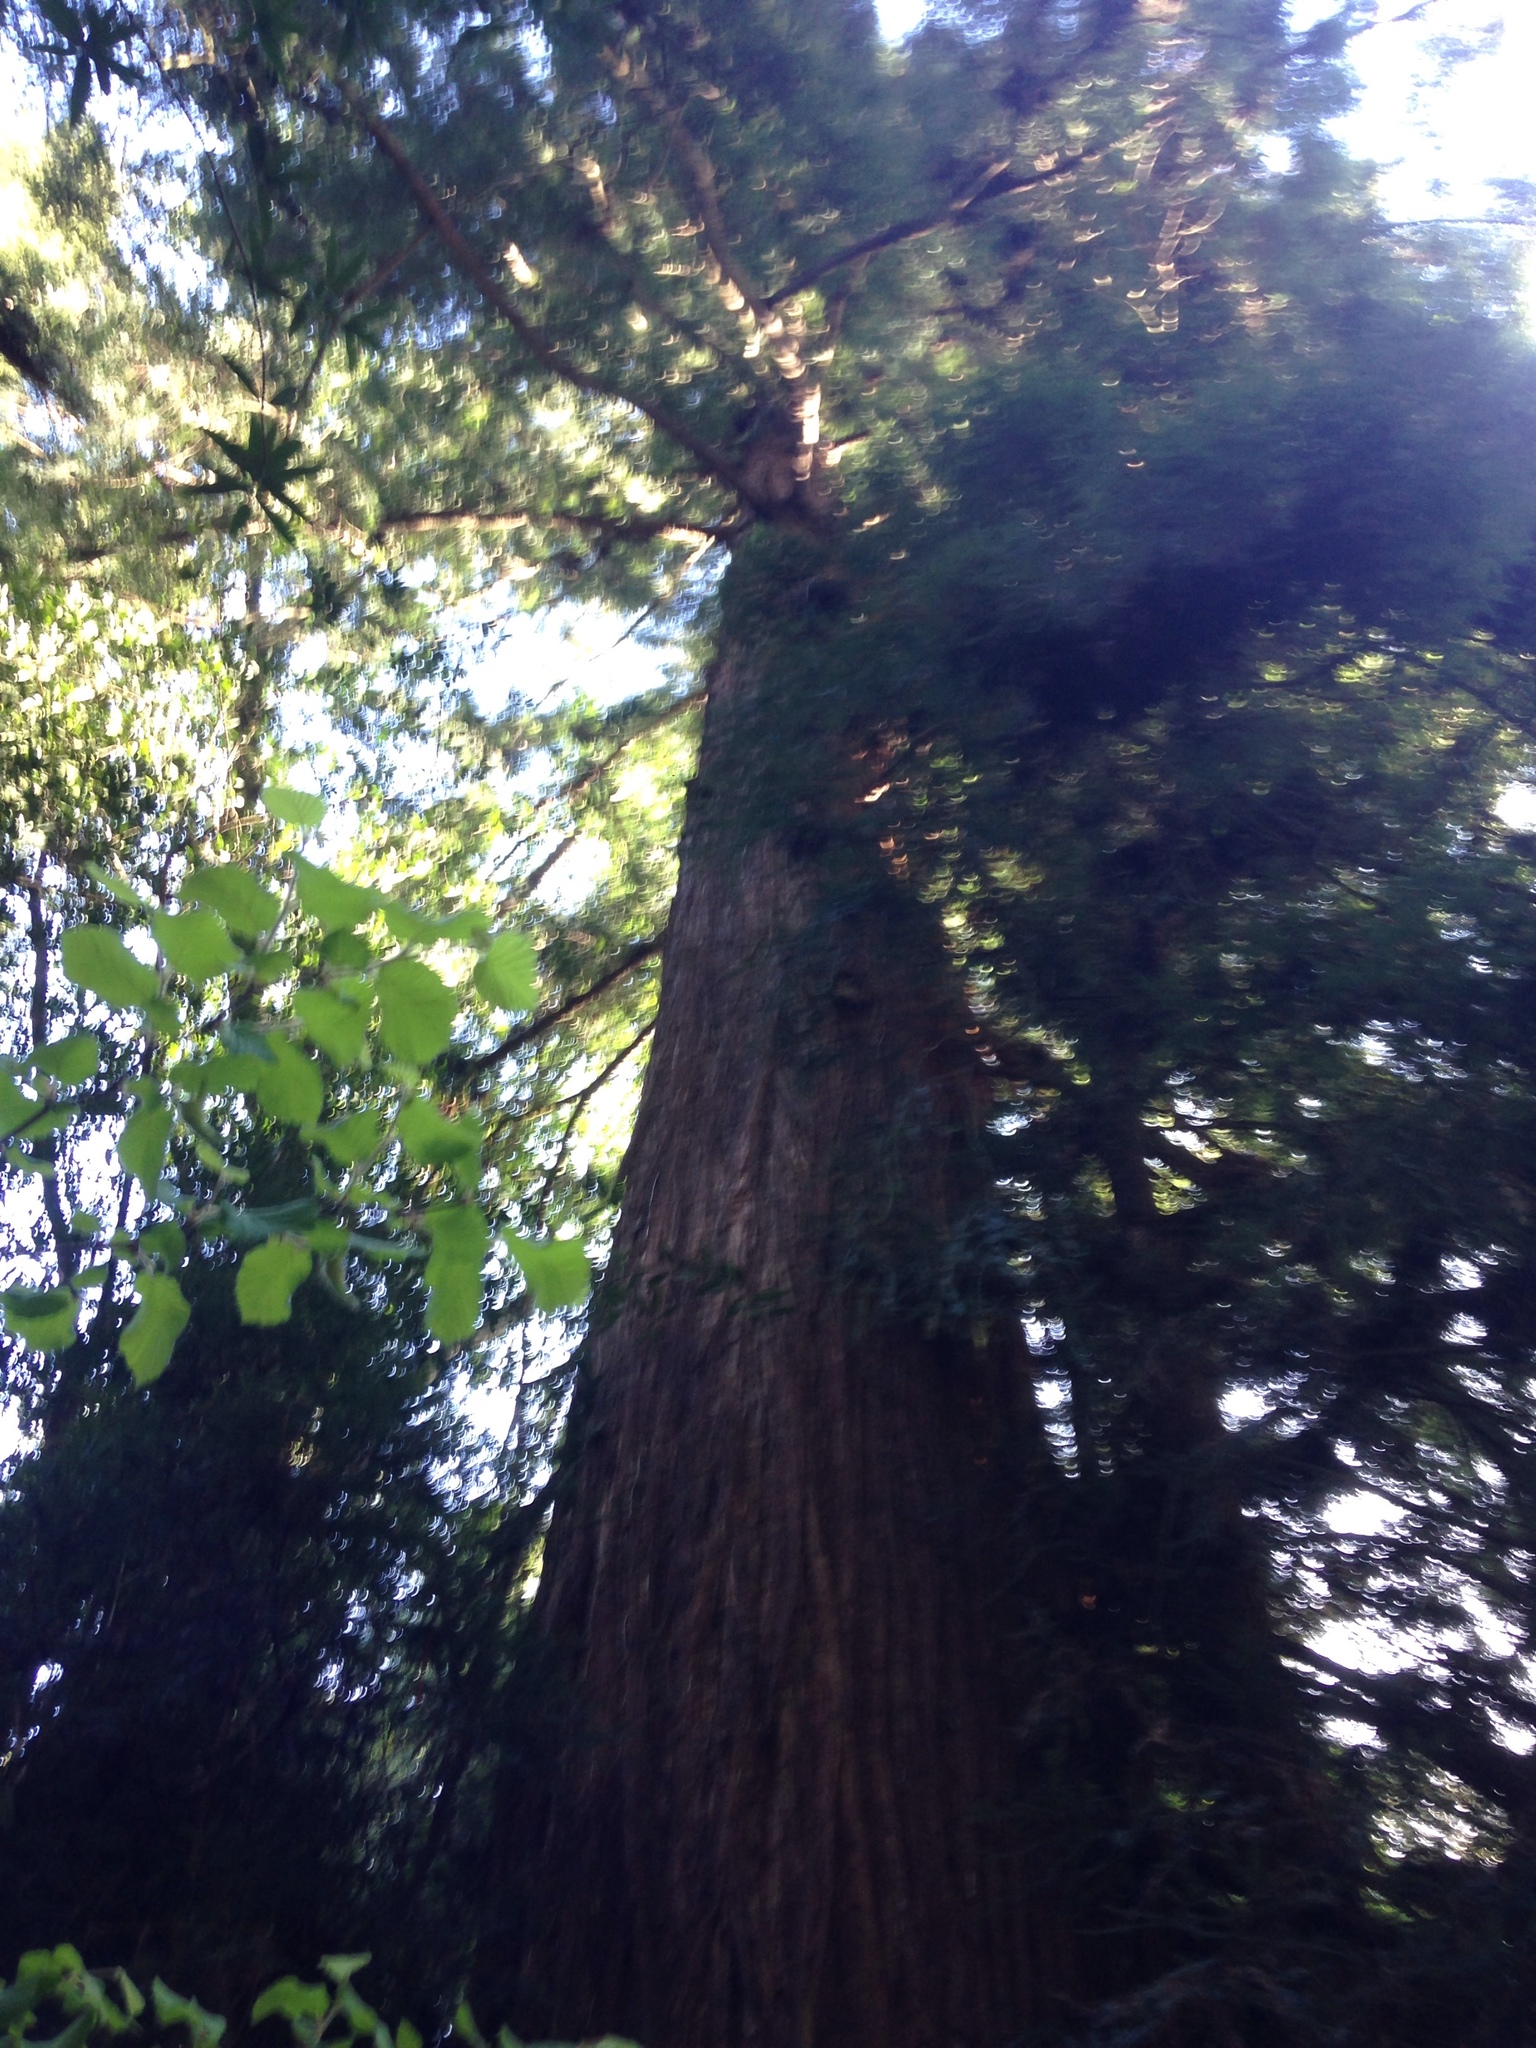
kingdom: Plantae
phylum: Tracheophyta
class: Pinopsida
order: Pinales
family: Cupressaceae
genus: Sequoia
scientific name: Sequoia sempervirens
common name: Coast redwood
